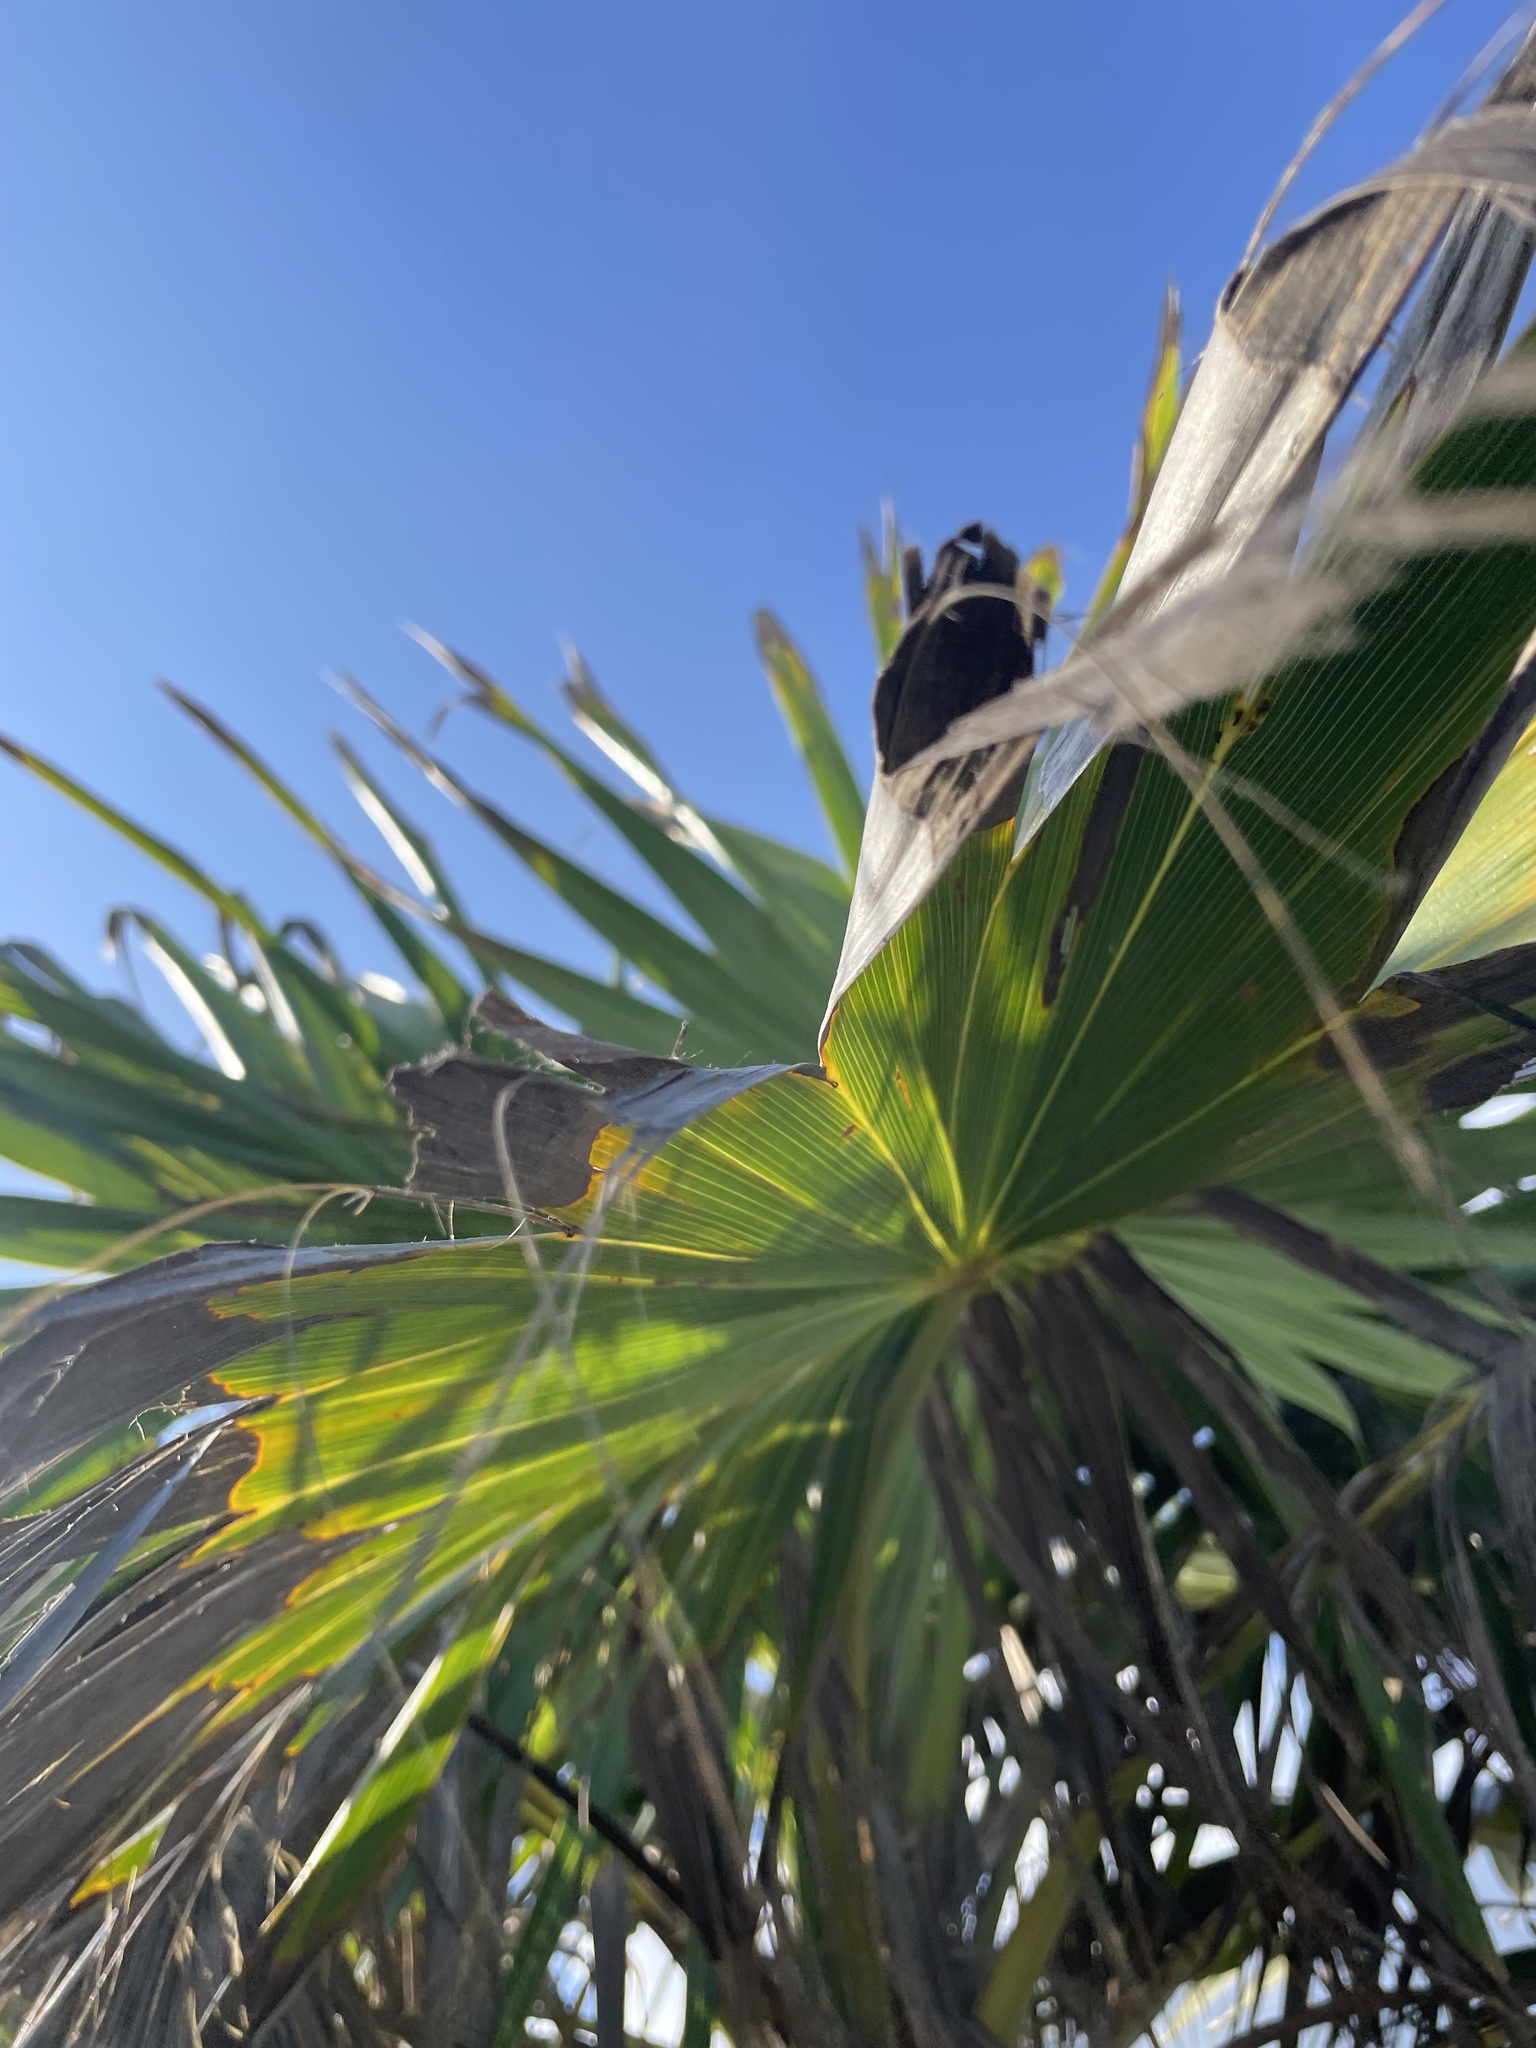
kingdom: Plantae
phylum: Tracheophyta
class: Liliopsida
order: Arecales
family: Arecaceae
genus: Thrinax
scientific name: Thrinax radiata
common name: Florida thatch
